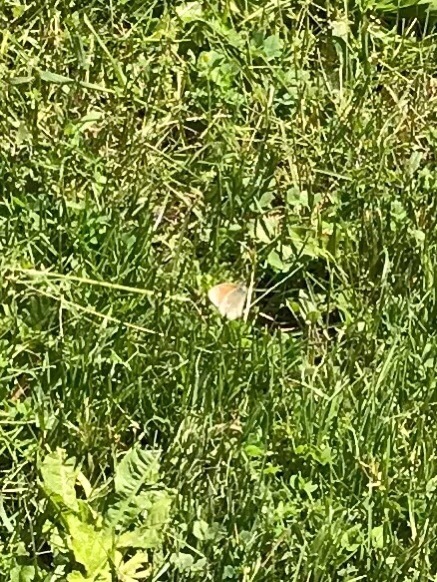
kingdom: Animalia
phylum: Arthropoda
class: Insecta
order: Lepidoptera
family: Nymphalidae
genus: Coenonympha
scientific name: Coenonympha california
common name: Common ringlet
